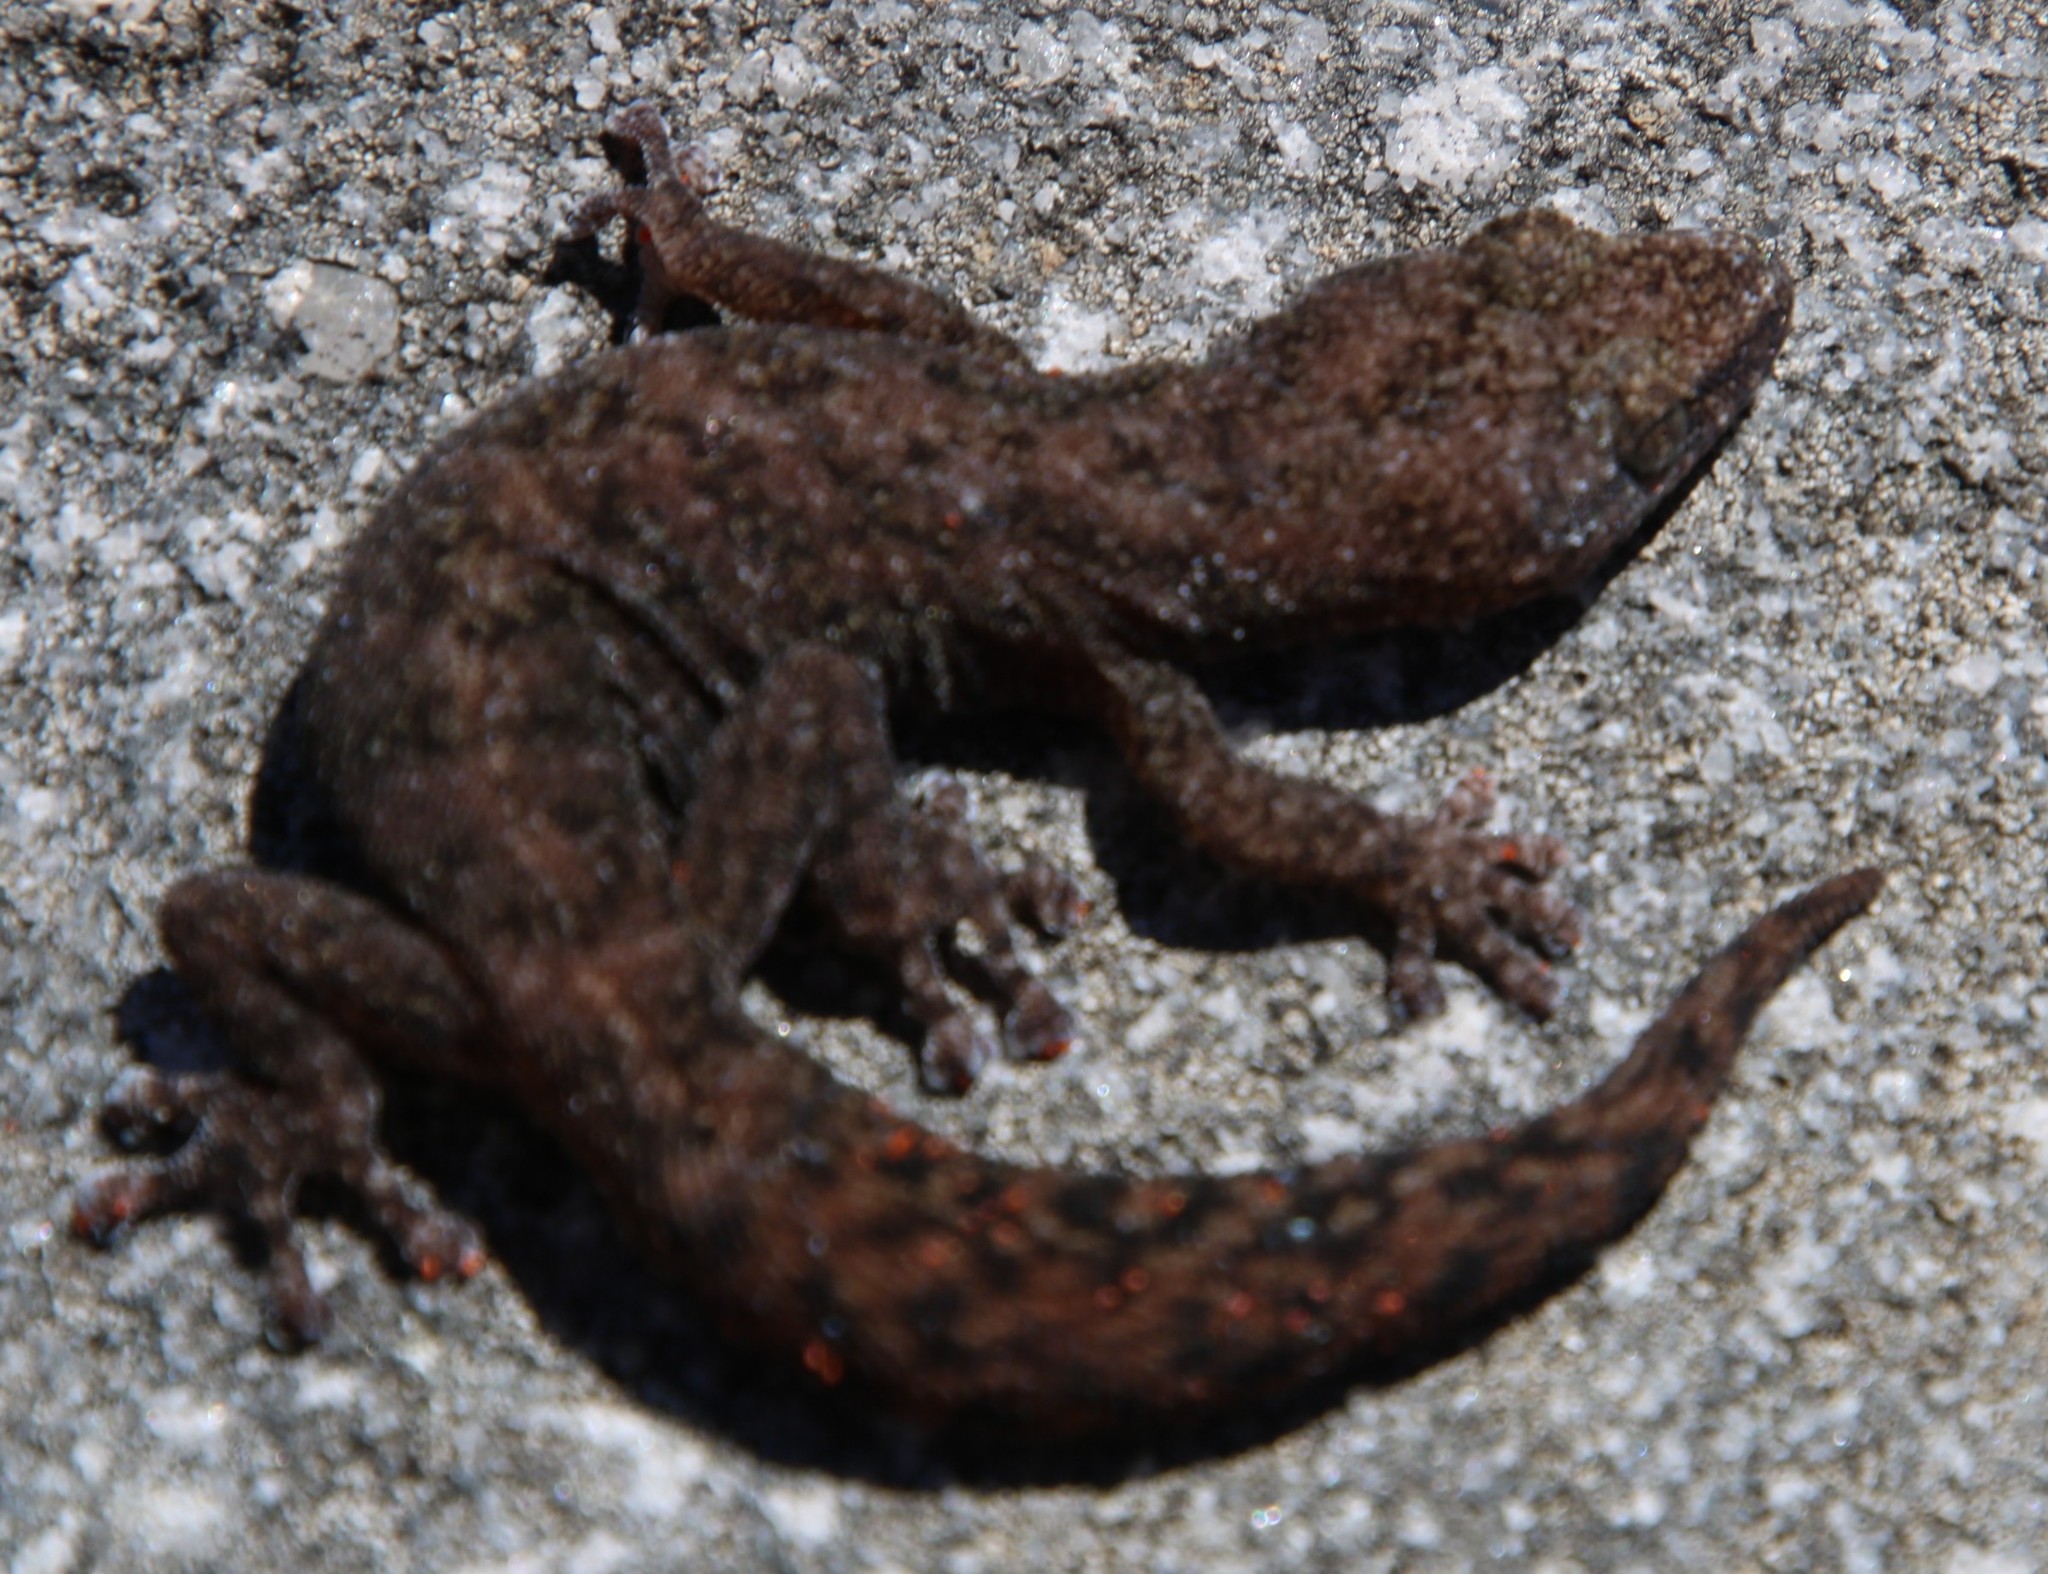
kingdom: Animalia
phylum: Chordata
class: Squamata
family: Gekkonidae
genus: Afrogecko
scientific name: Afrogecko porphyreus
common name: Marbled leaf-toed gecko
